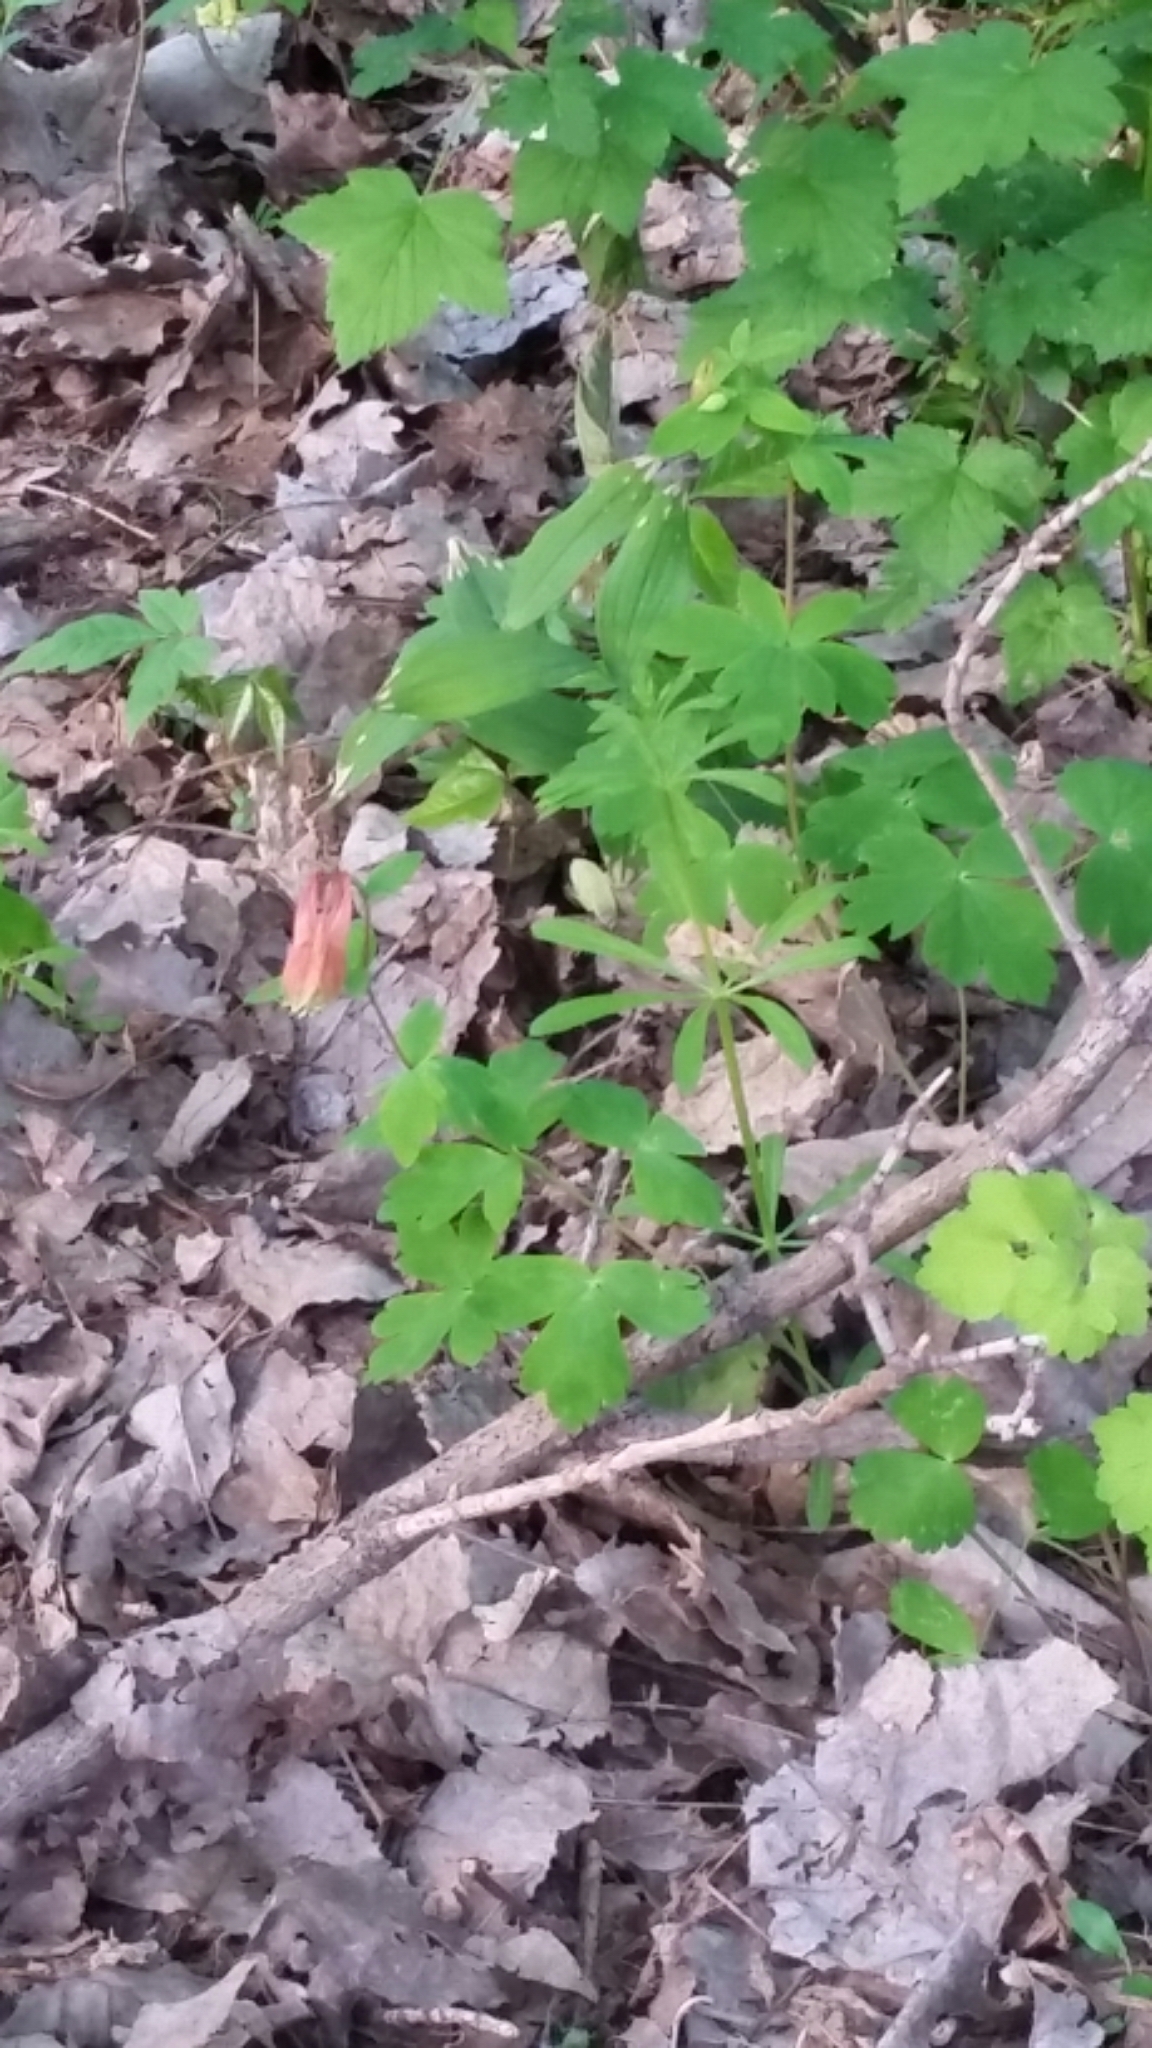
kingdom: Plantae
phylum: Tracheophyta
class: Magnoliopsida
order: Ranunculales
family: Ranunculaceae
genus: Aquilegia
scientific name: Aquilegia canadensis
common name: American columbine
